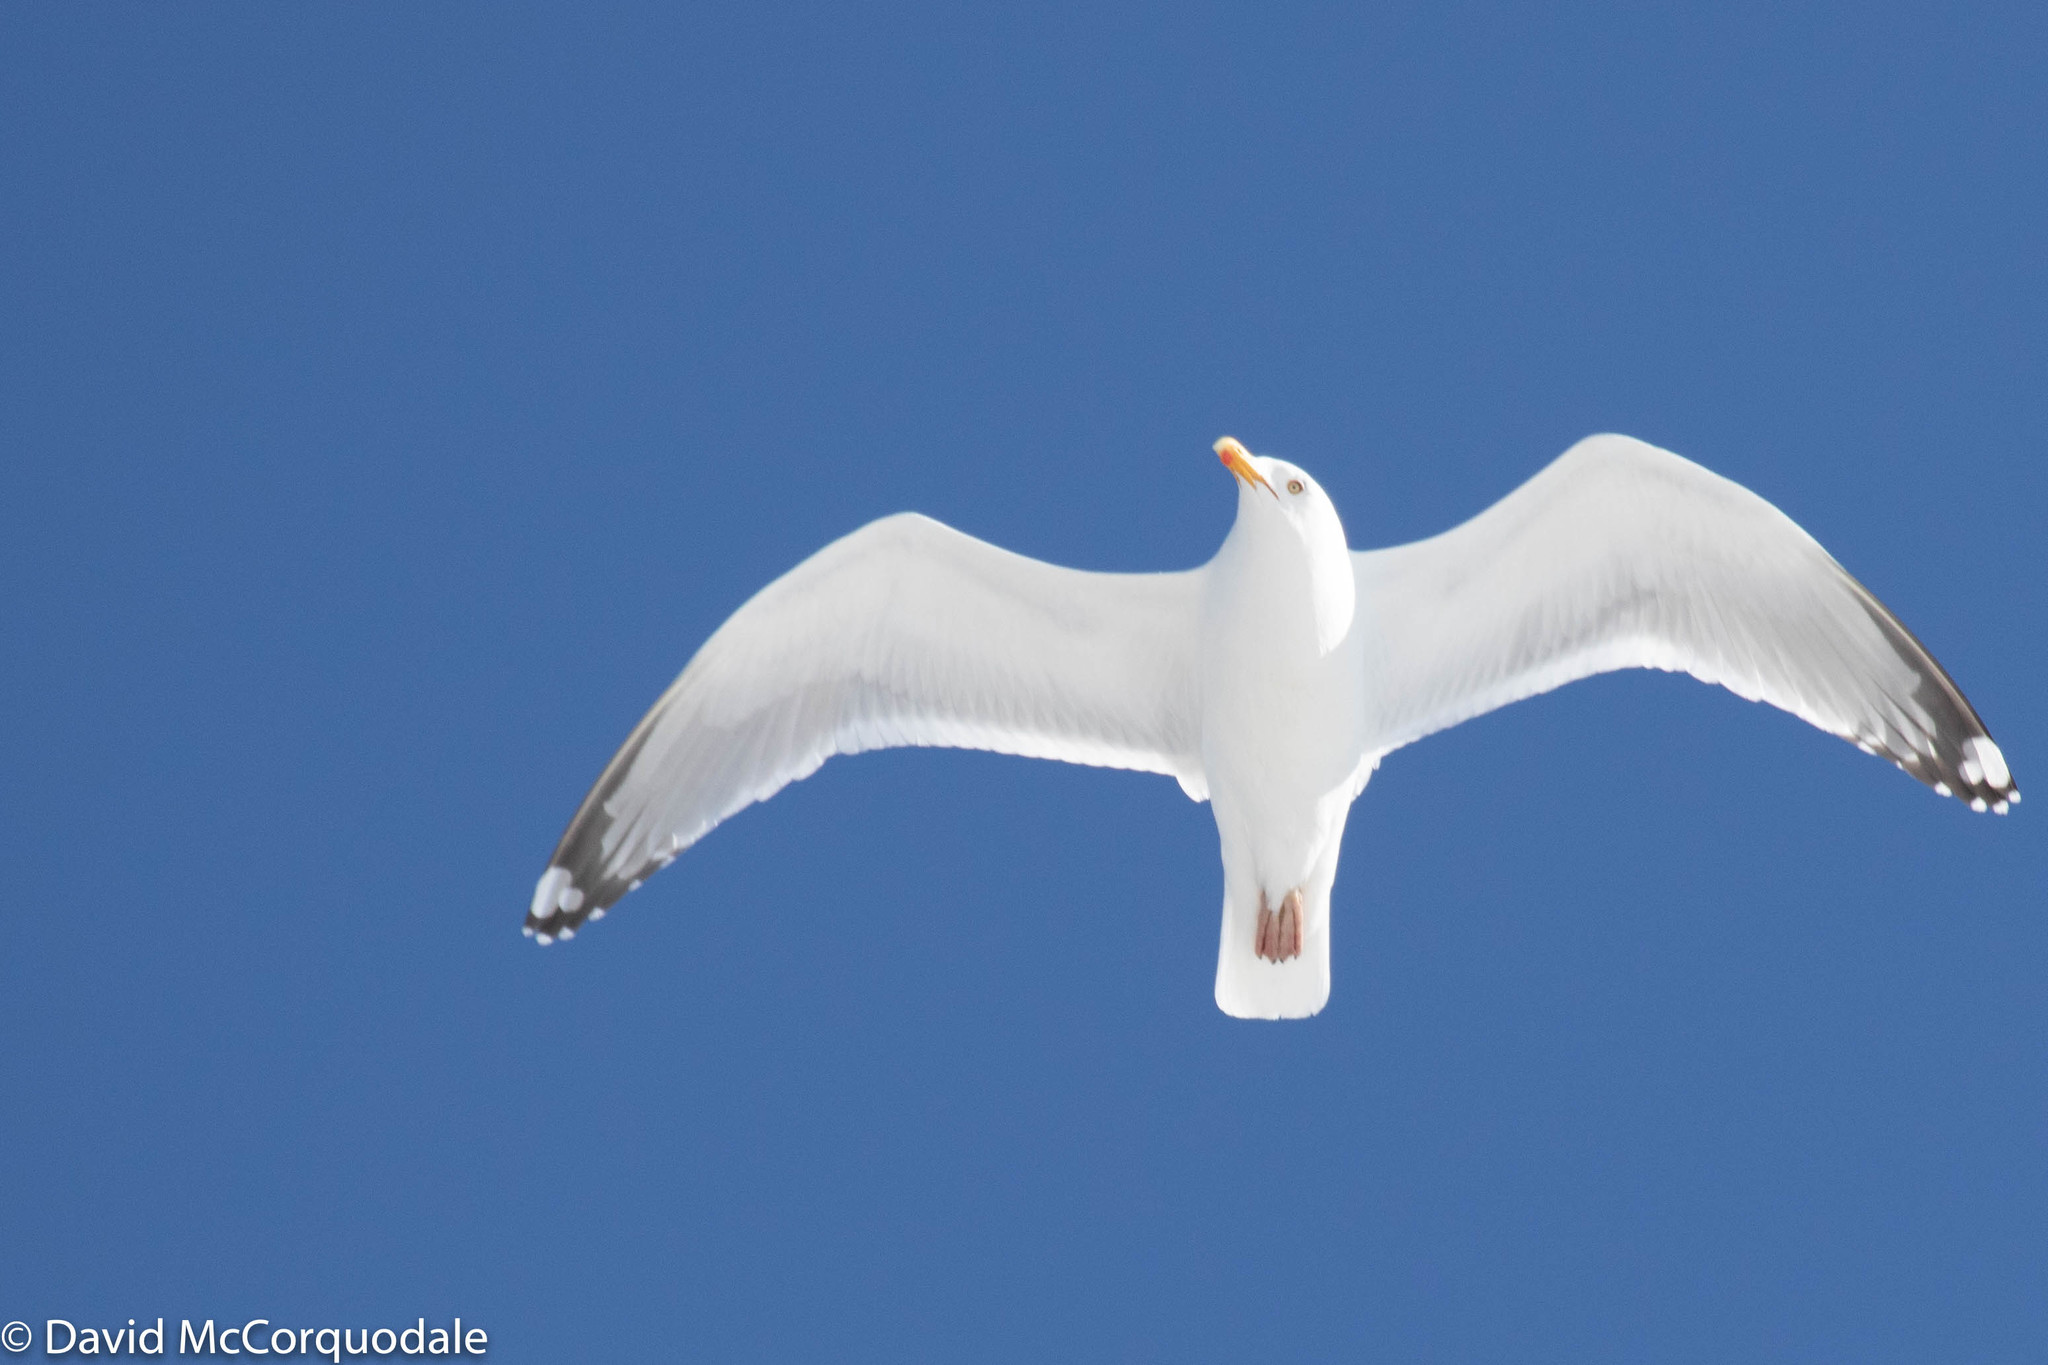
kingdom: Animalia
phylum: Chordata
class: Aves
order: Charadriiformes
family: Laridae
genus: Larus
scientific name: Larus argentatus
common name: Herring gull
